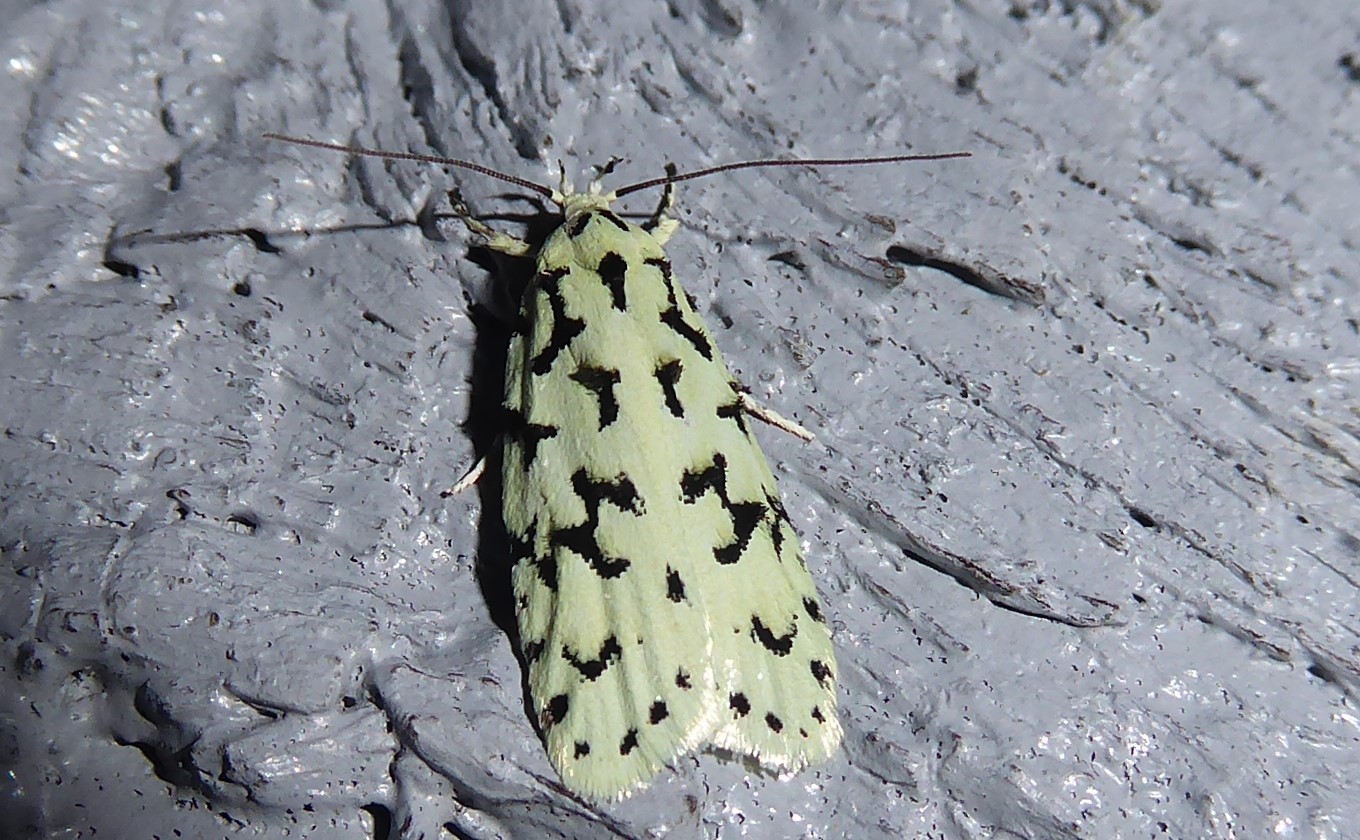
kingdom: Animalia
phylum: Arthropoda
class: Insecta
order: Lepidoptera
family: Oecophoridae
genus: Izatha
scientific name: Izatha huttoni
